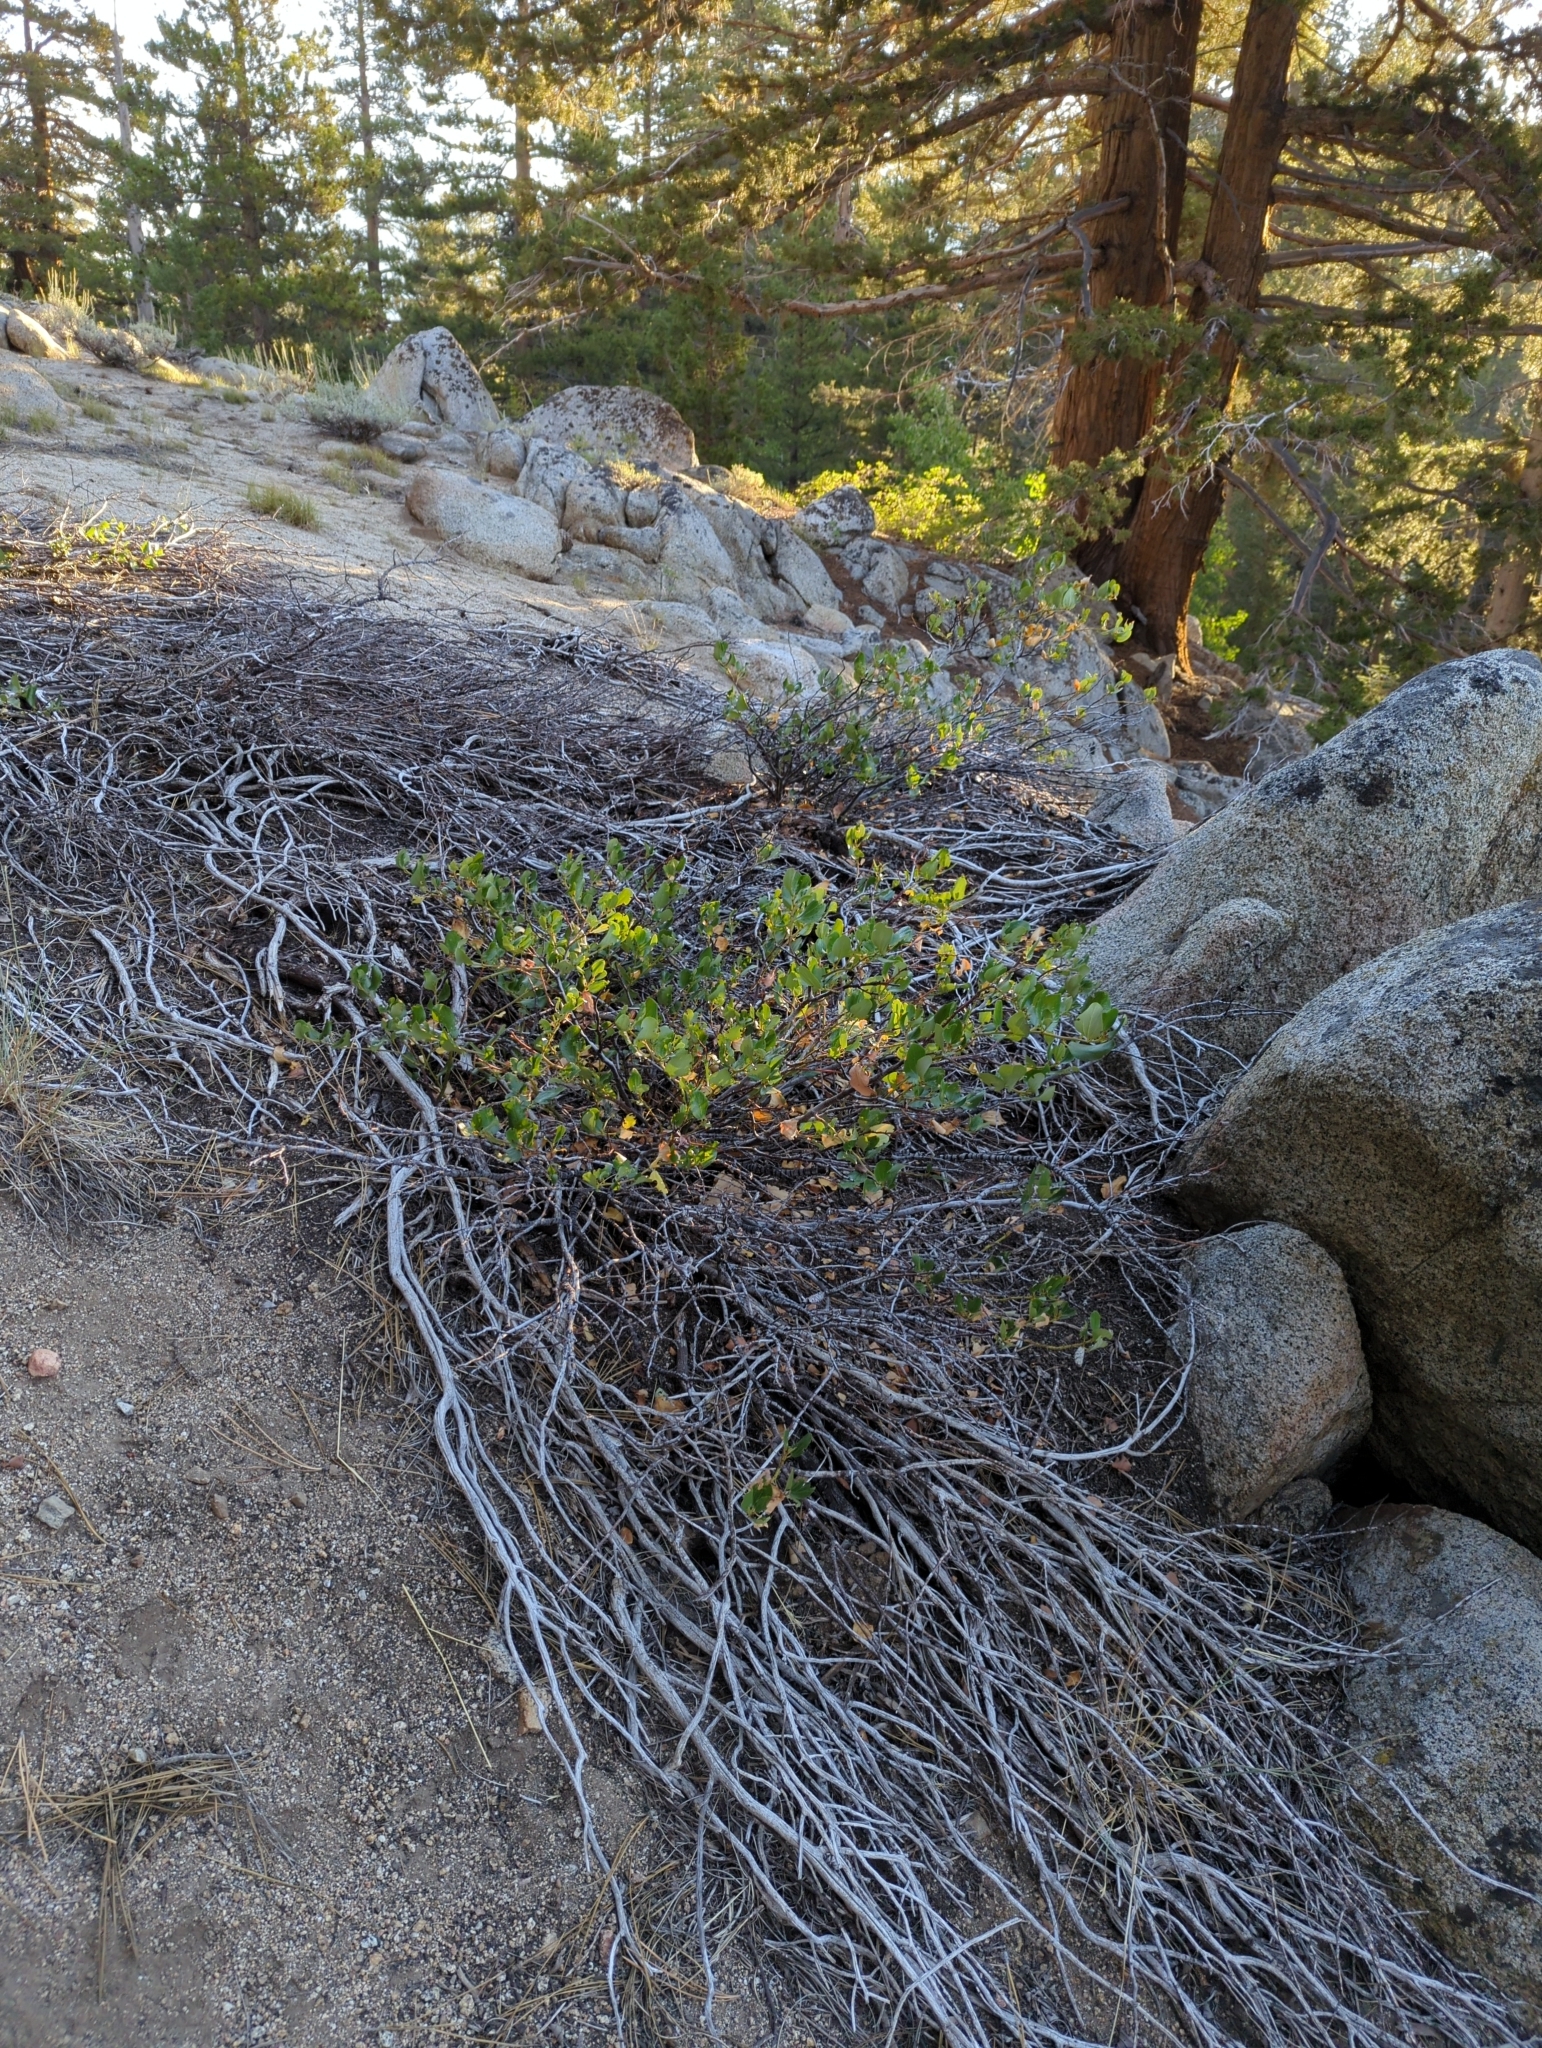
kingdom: Plantae
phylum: Tracheophyta
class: Magnoliopsida
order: Rosales
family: Rhamnaceae
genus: Ceanothus
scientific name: Ceanothus velutinus
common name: Snowbrush
